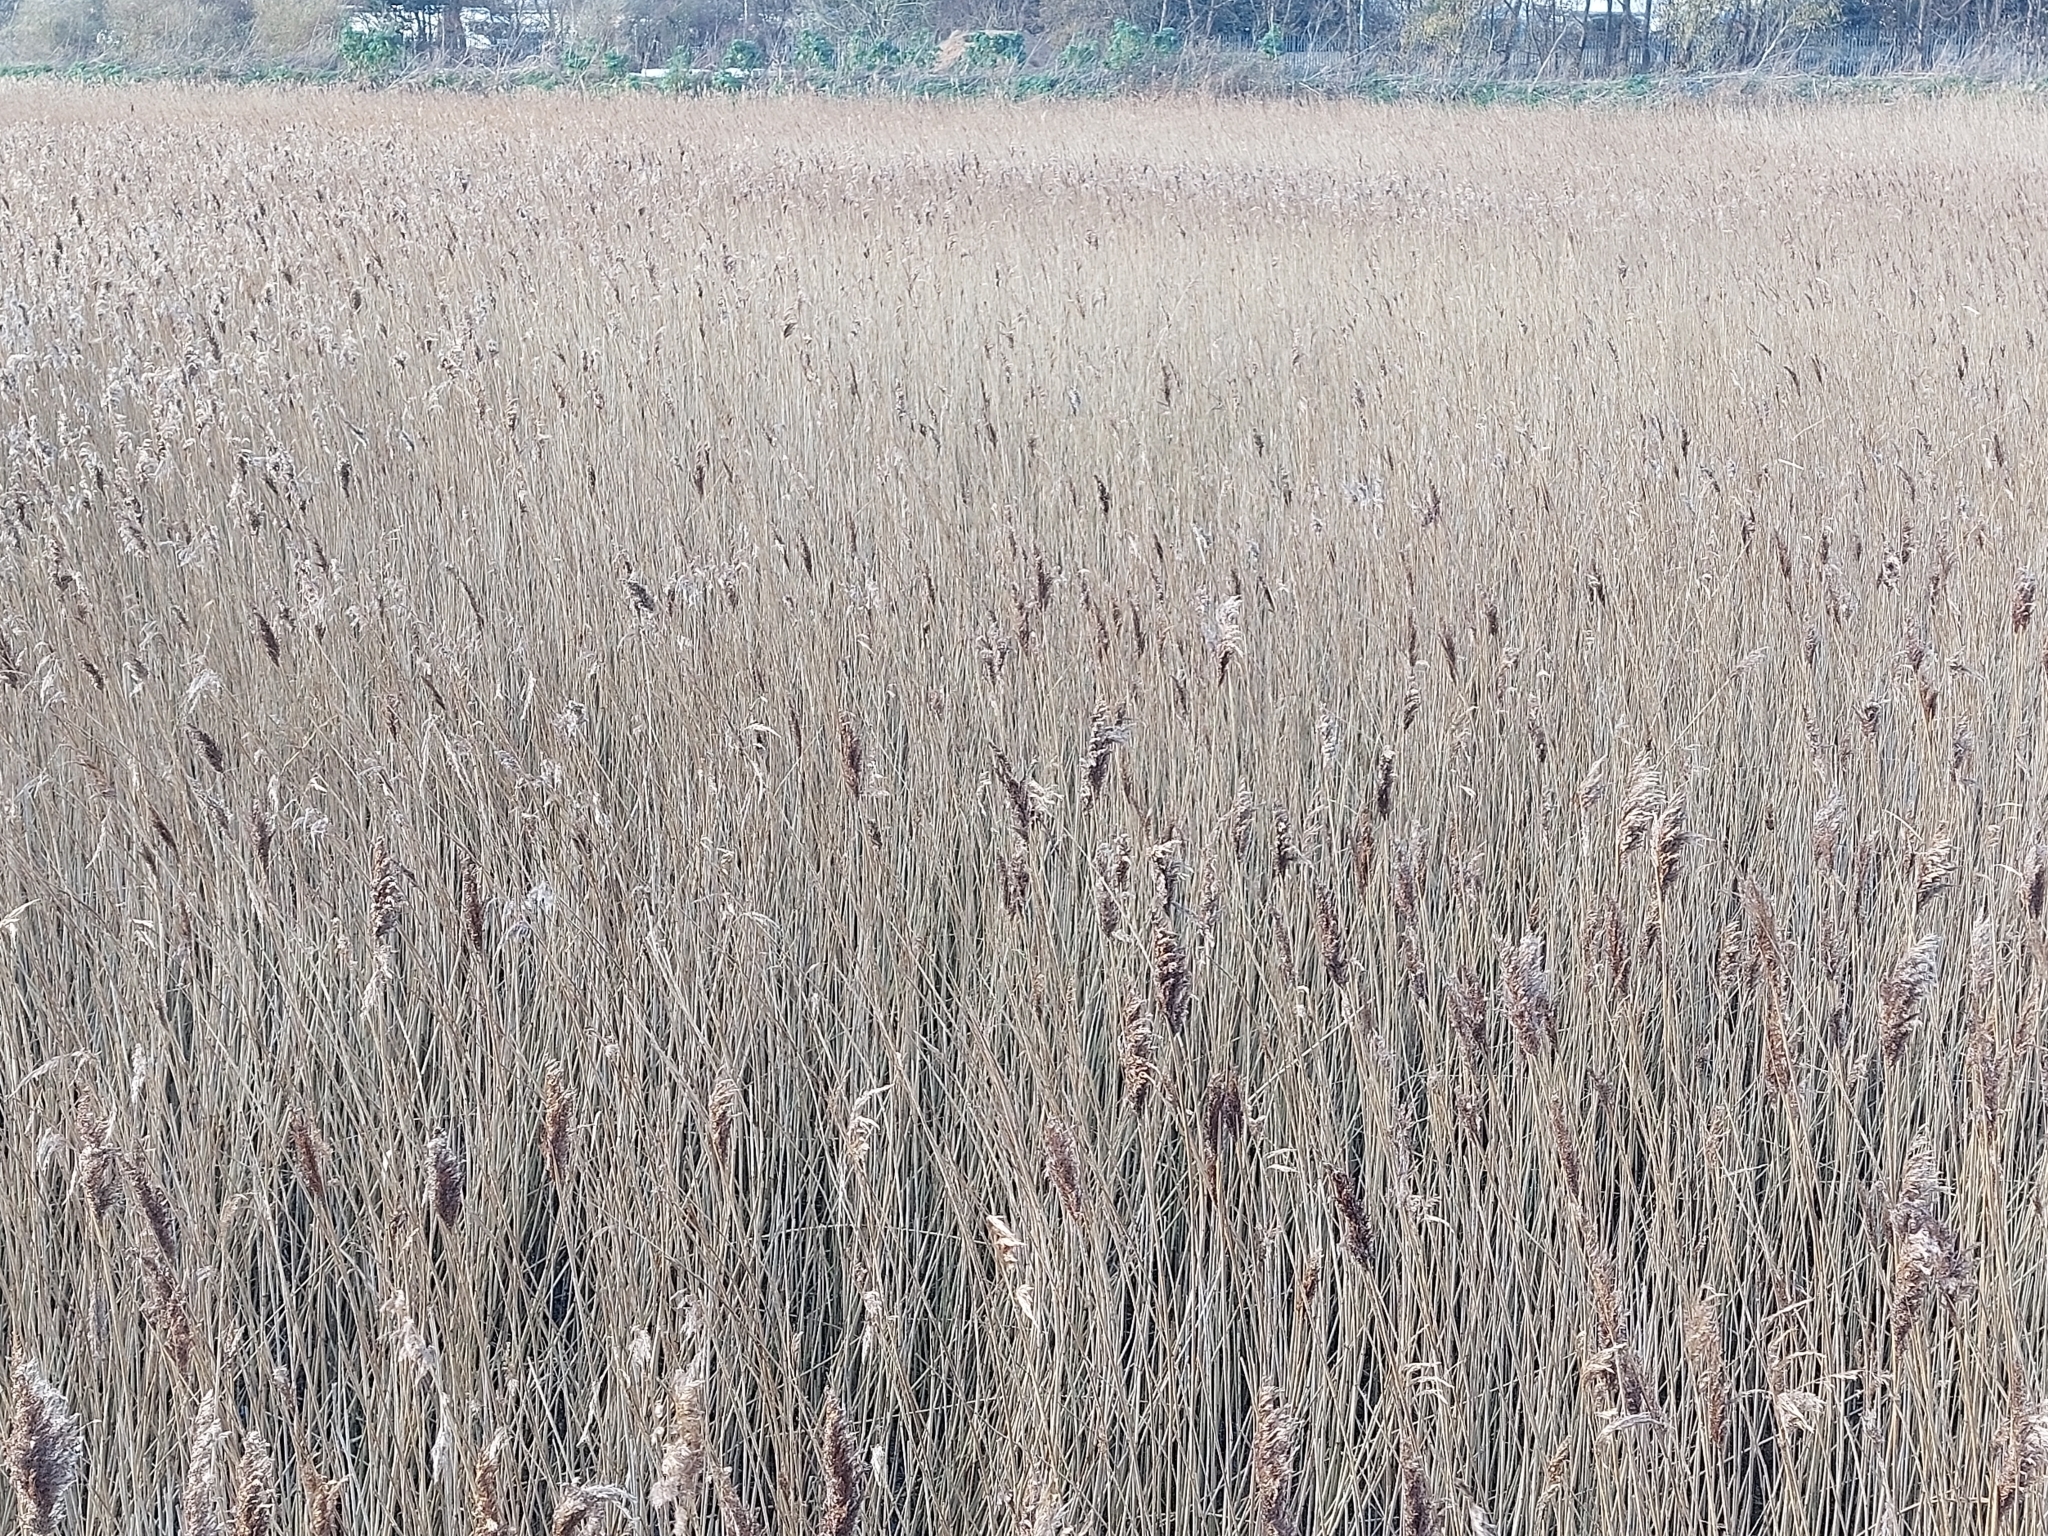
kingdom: Plantae
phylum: Tracheophyta
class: Liliopsida
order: Poales
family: Poaceae
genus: Phragmites
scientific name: Phragmites australis
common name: Common reed
